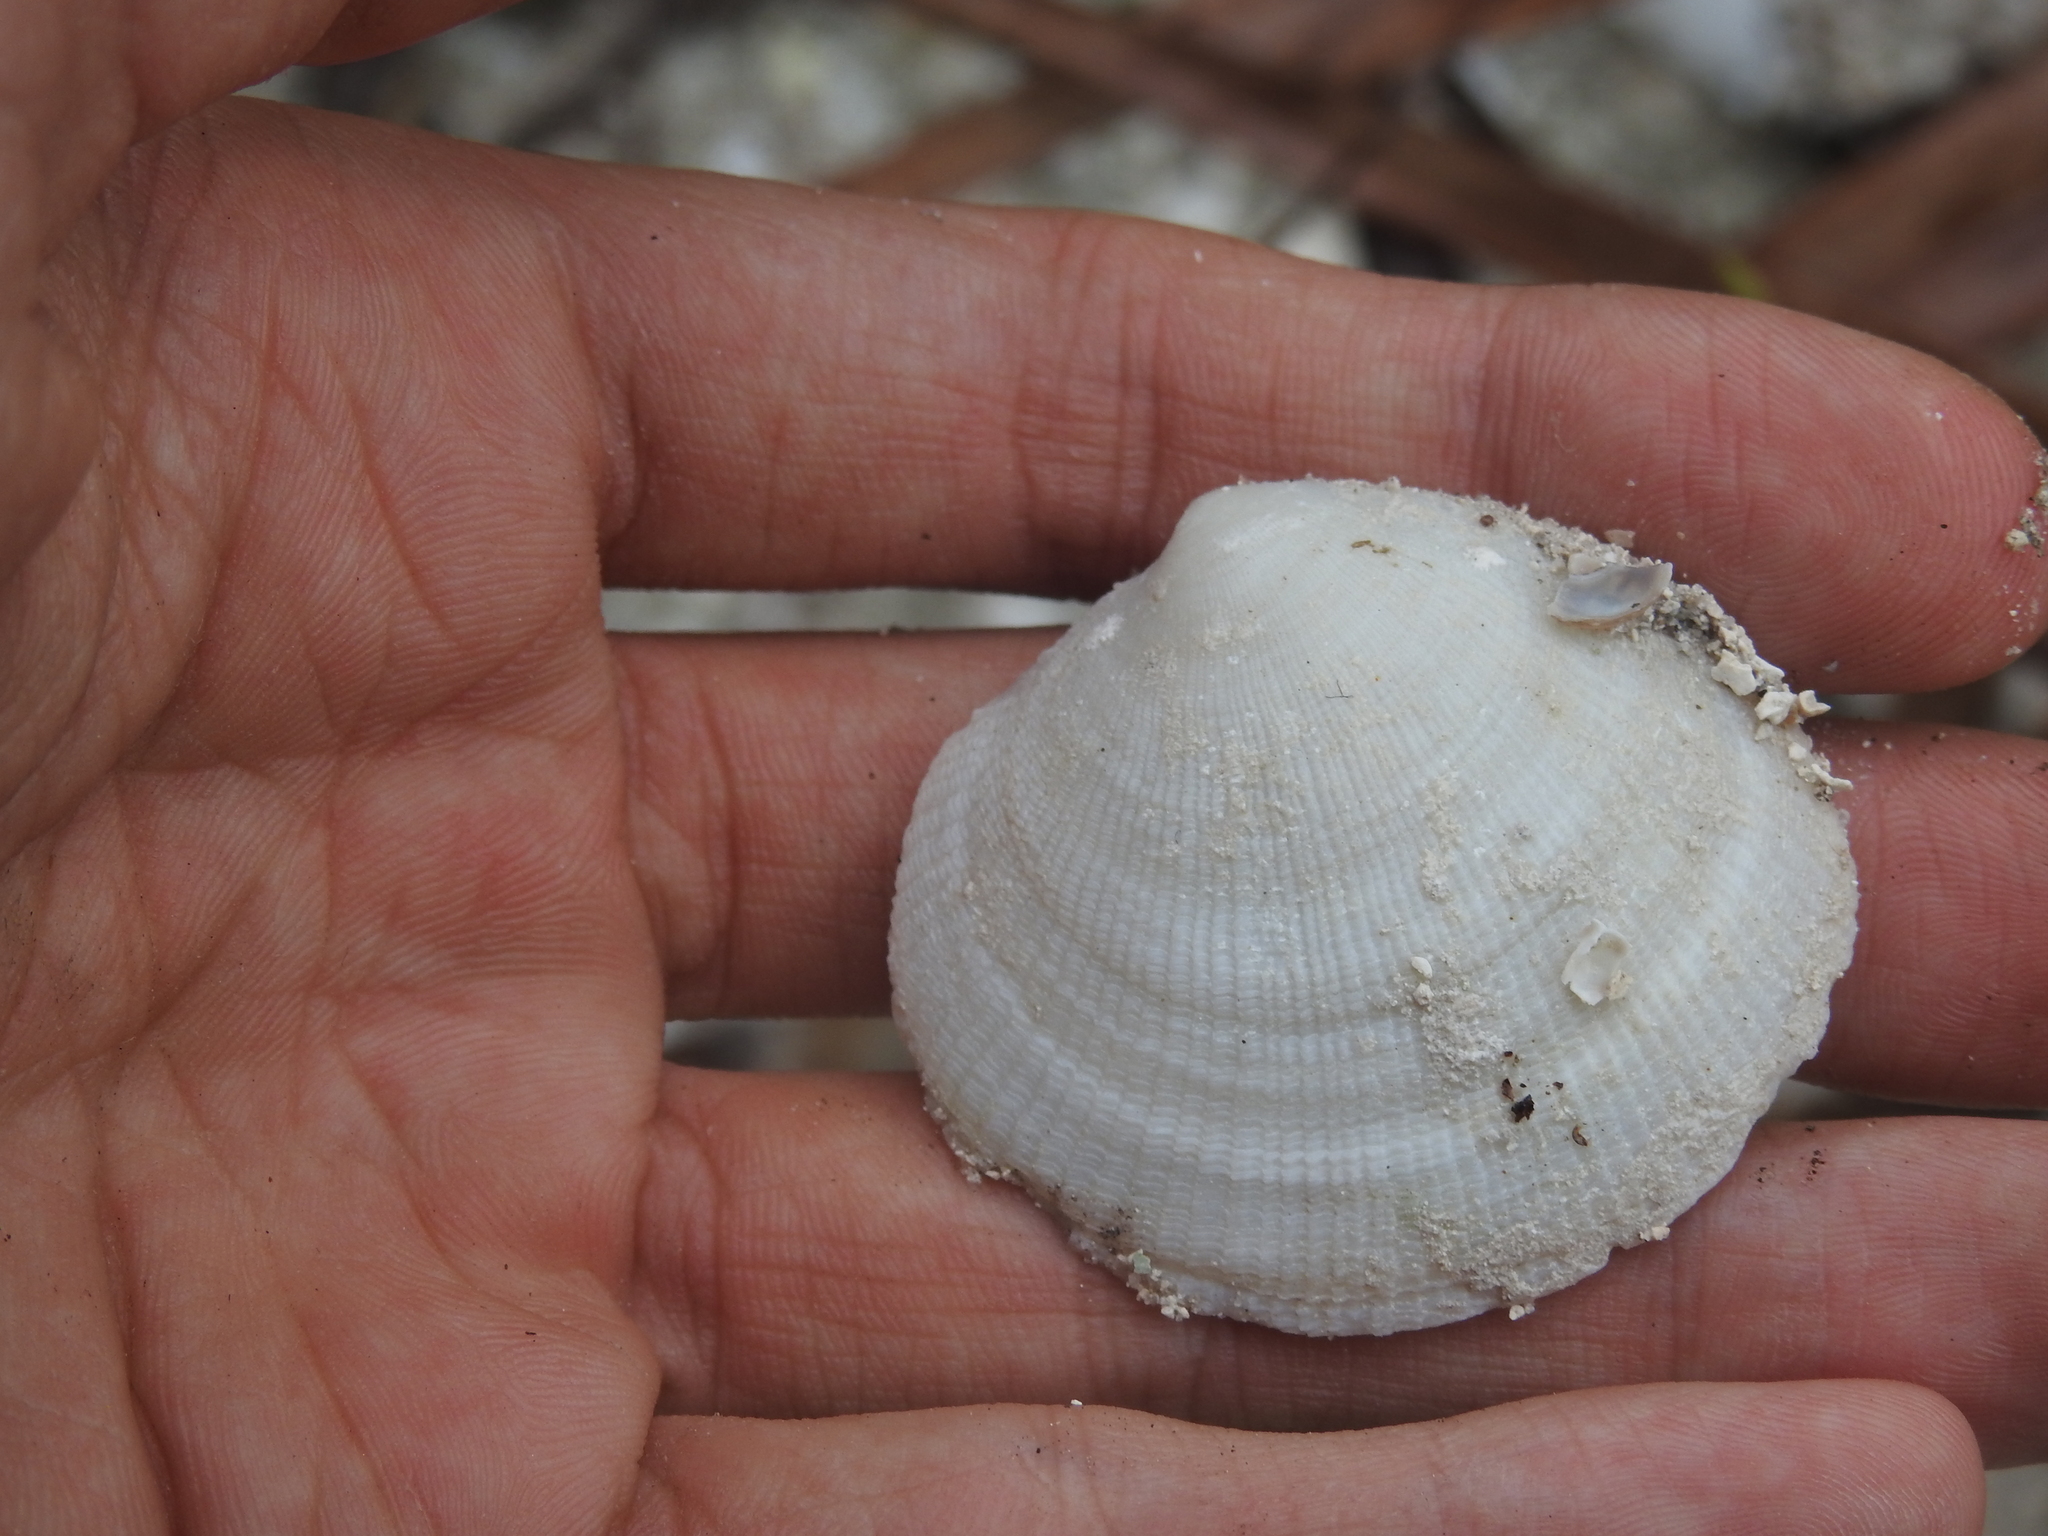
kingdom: Animalia
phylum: Mollusca
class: Bivalvia
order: Lucinida
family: Lucinidae
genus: Codakia
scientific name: Codakia orbicularis
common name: Tiger lucine
